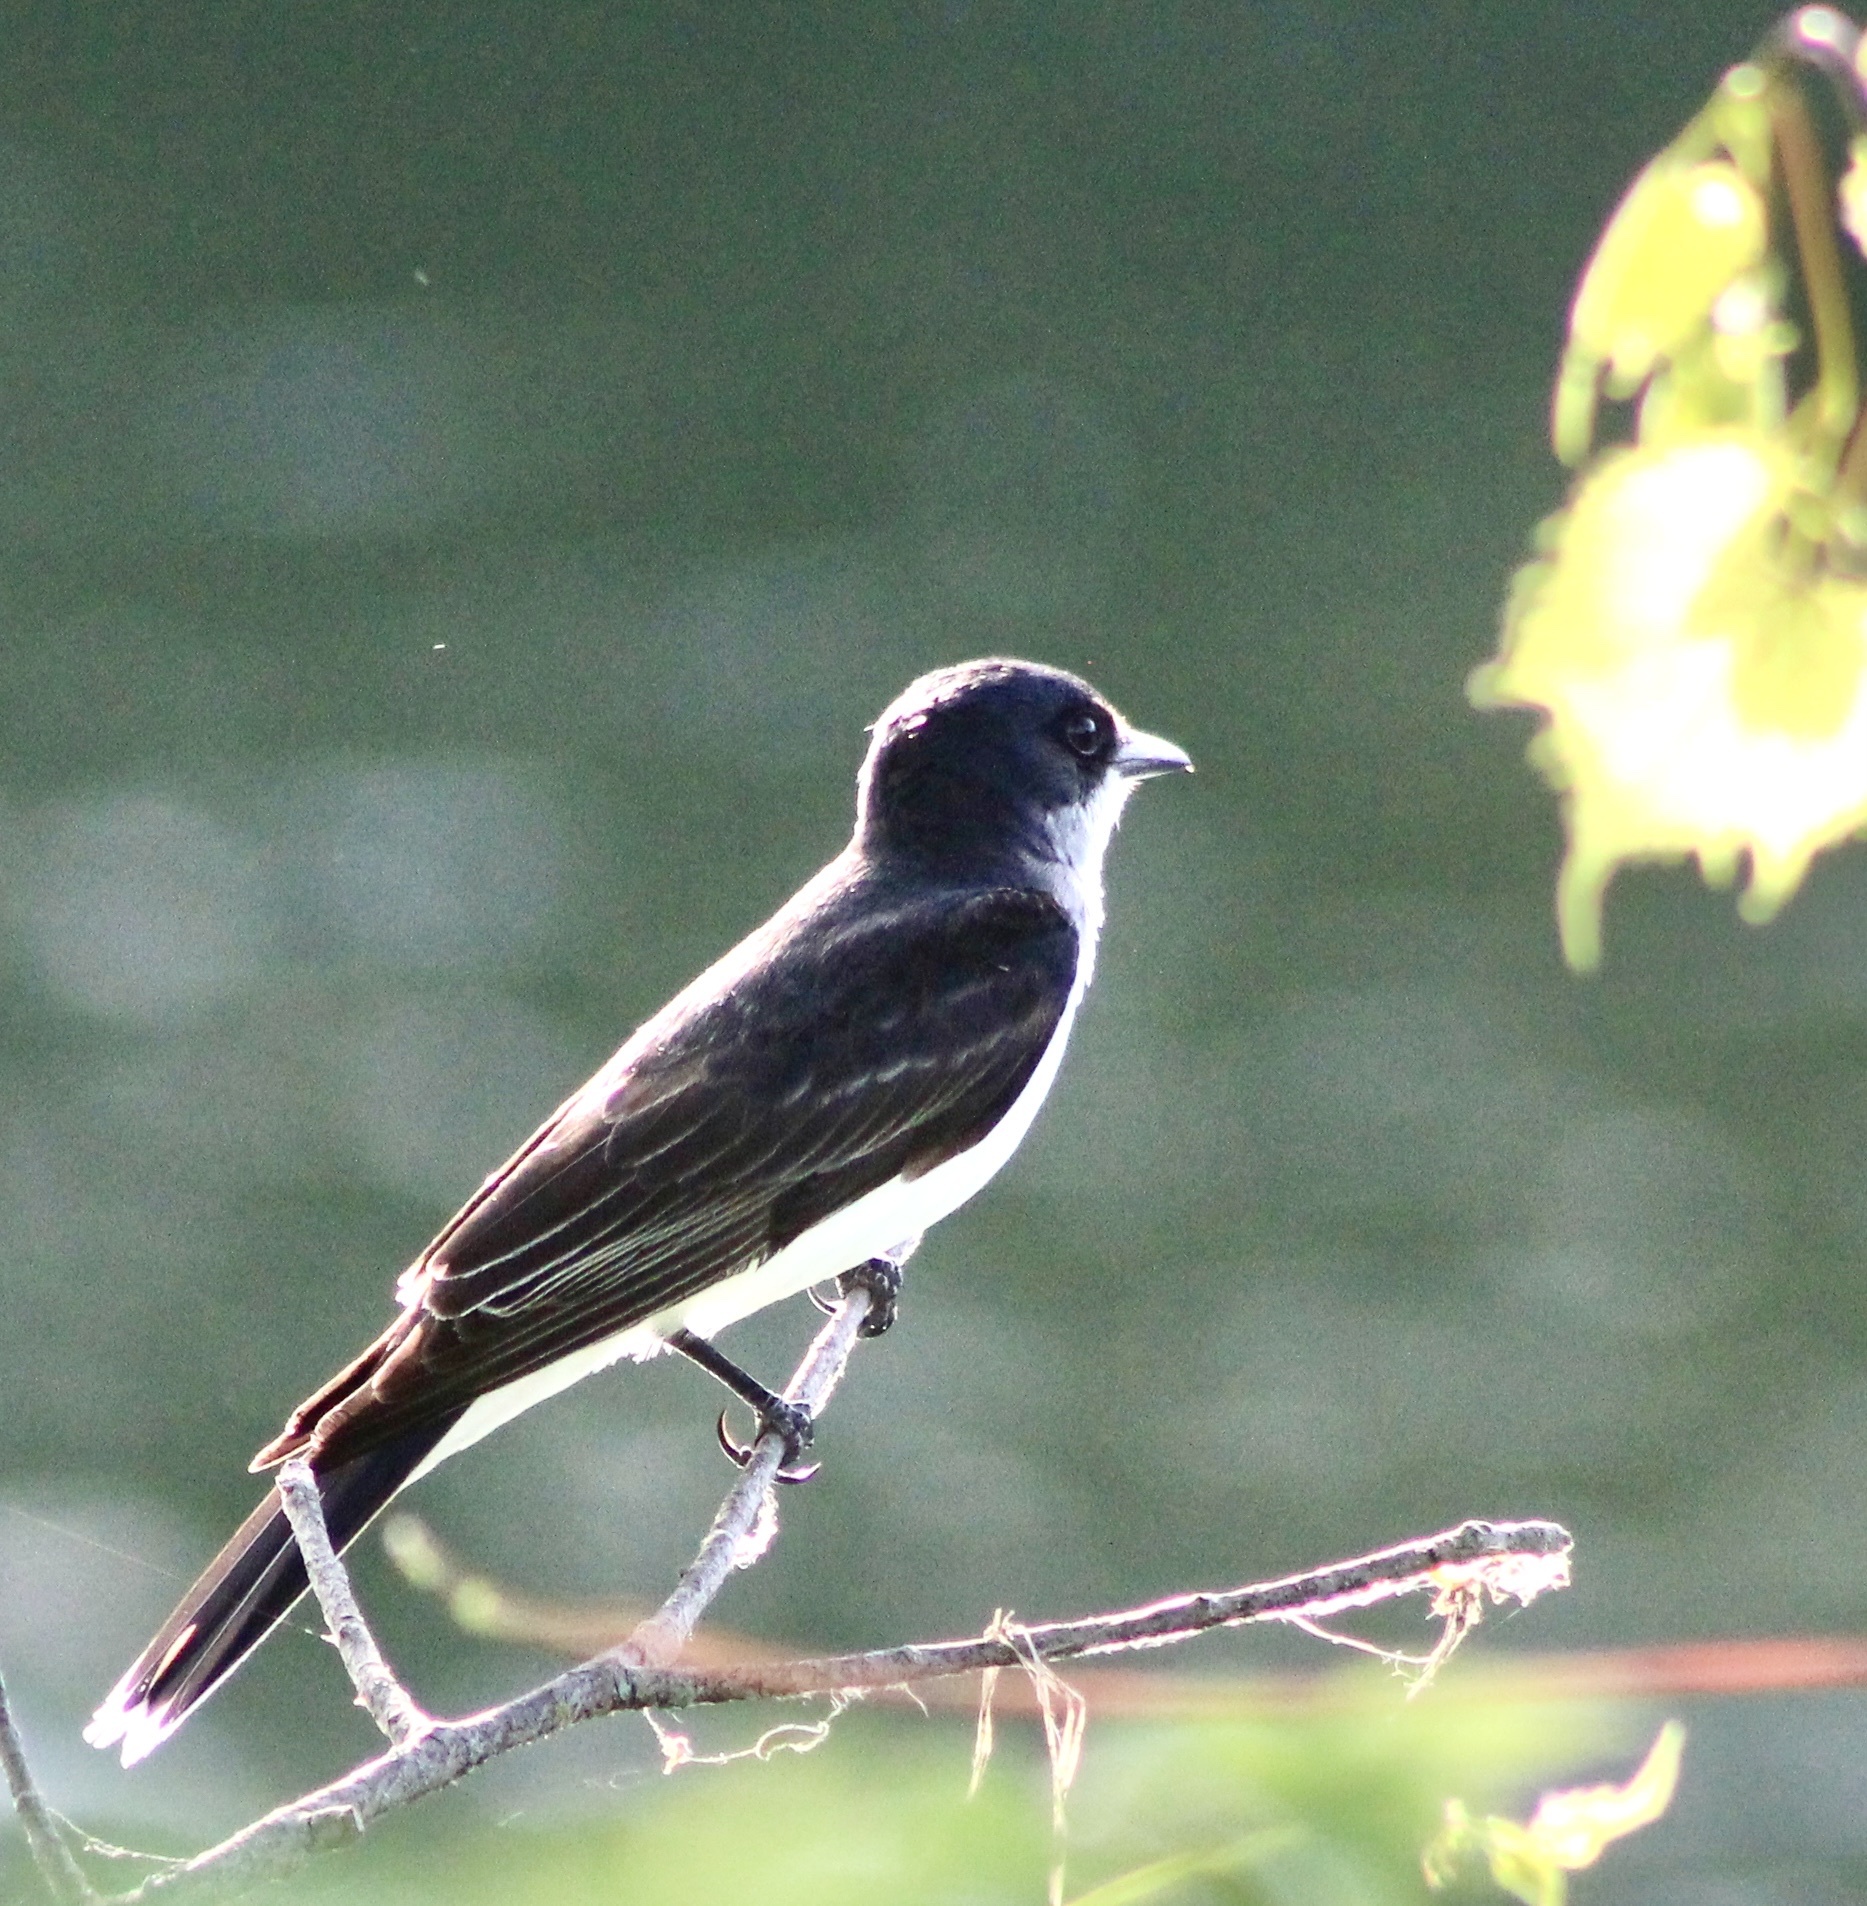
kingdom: Animalia
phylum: Chordata
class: Aves
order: Passeriformes
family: Tyrannidae
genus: Tyrannus
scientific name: Tyrannus tyrannus
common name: Eastern kingbird
